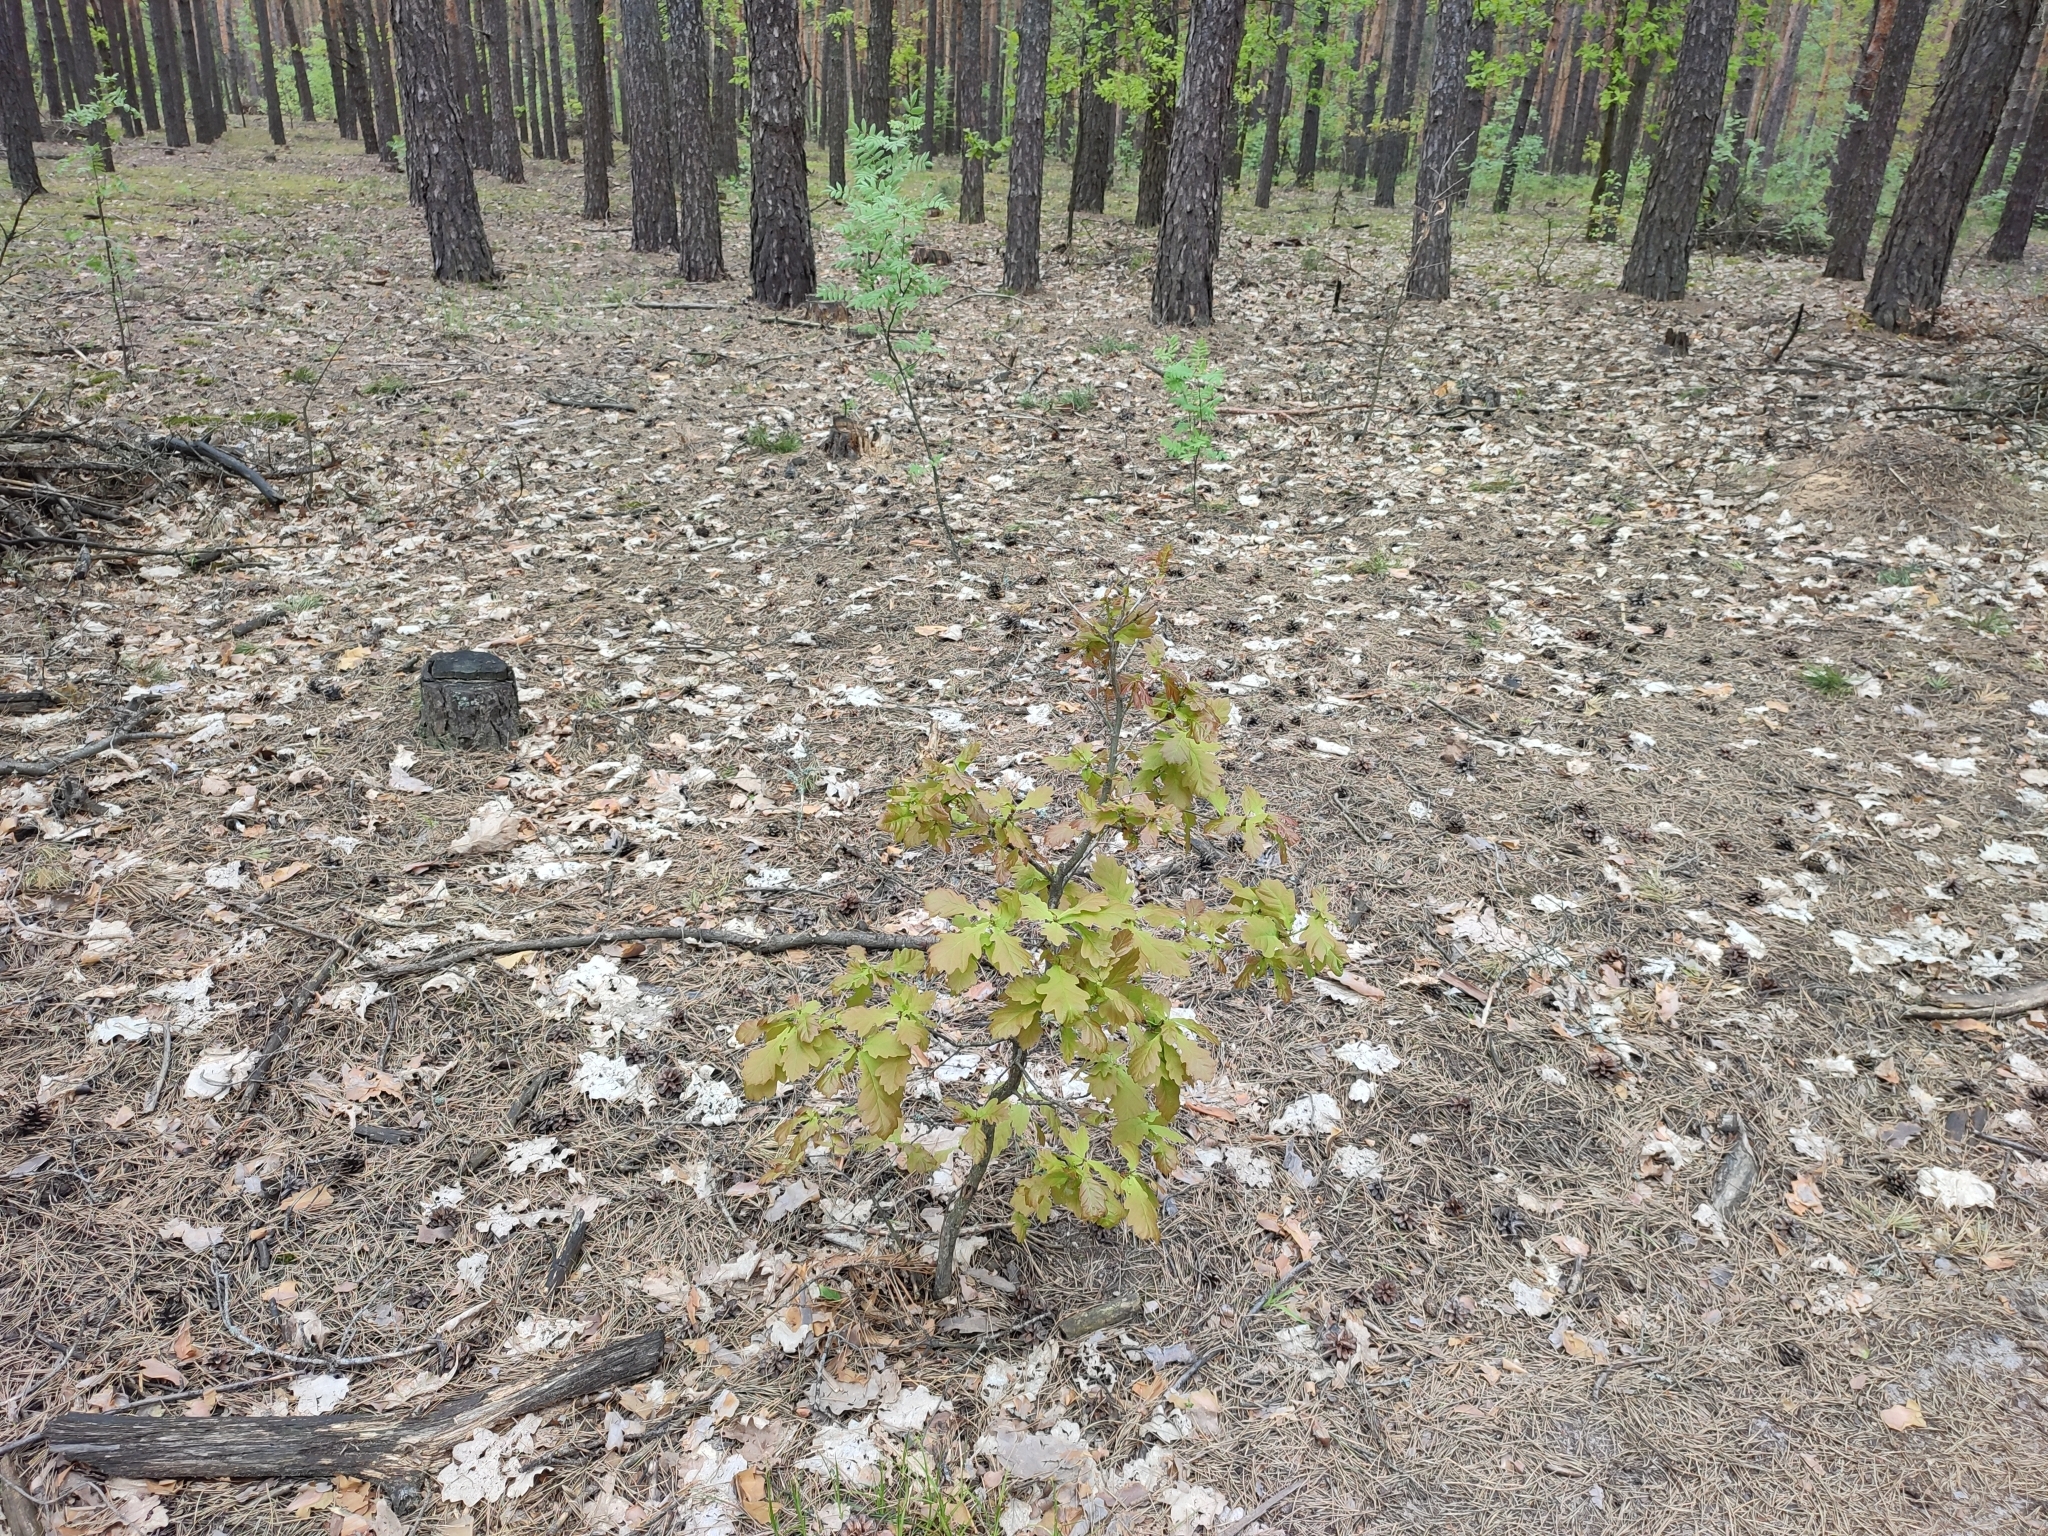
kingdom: Plantae
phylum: Tracheophyta
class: Magnoliopsida
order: Fagales
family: Fagaceae
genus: Quercus
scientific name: Quercus robur
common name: Pedunculate oak
